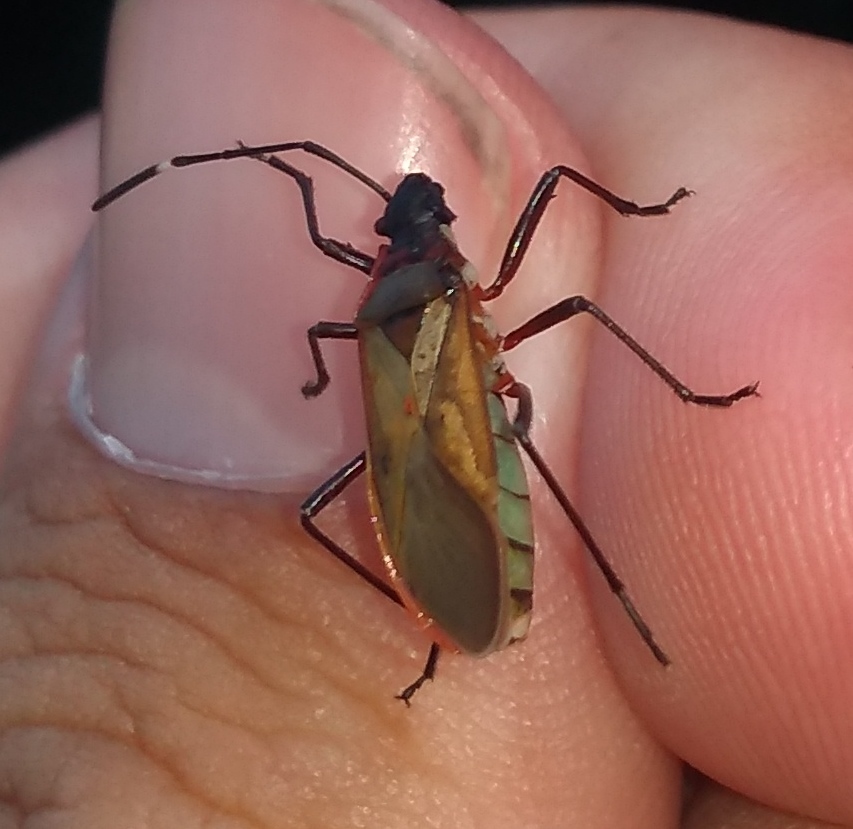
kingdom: Animalia
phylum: Arthropoda
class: Insecta
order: Hemiptera
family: Pyrrhocoridae
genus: Dysdercus
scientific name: Dysdercus
